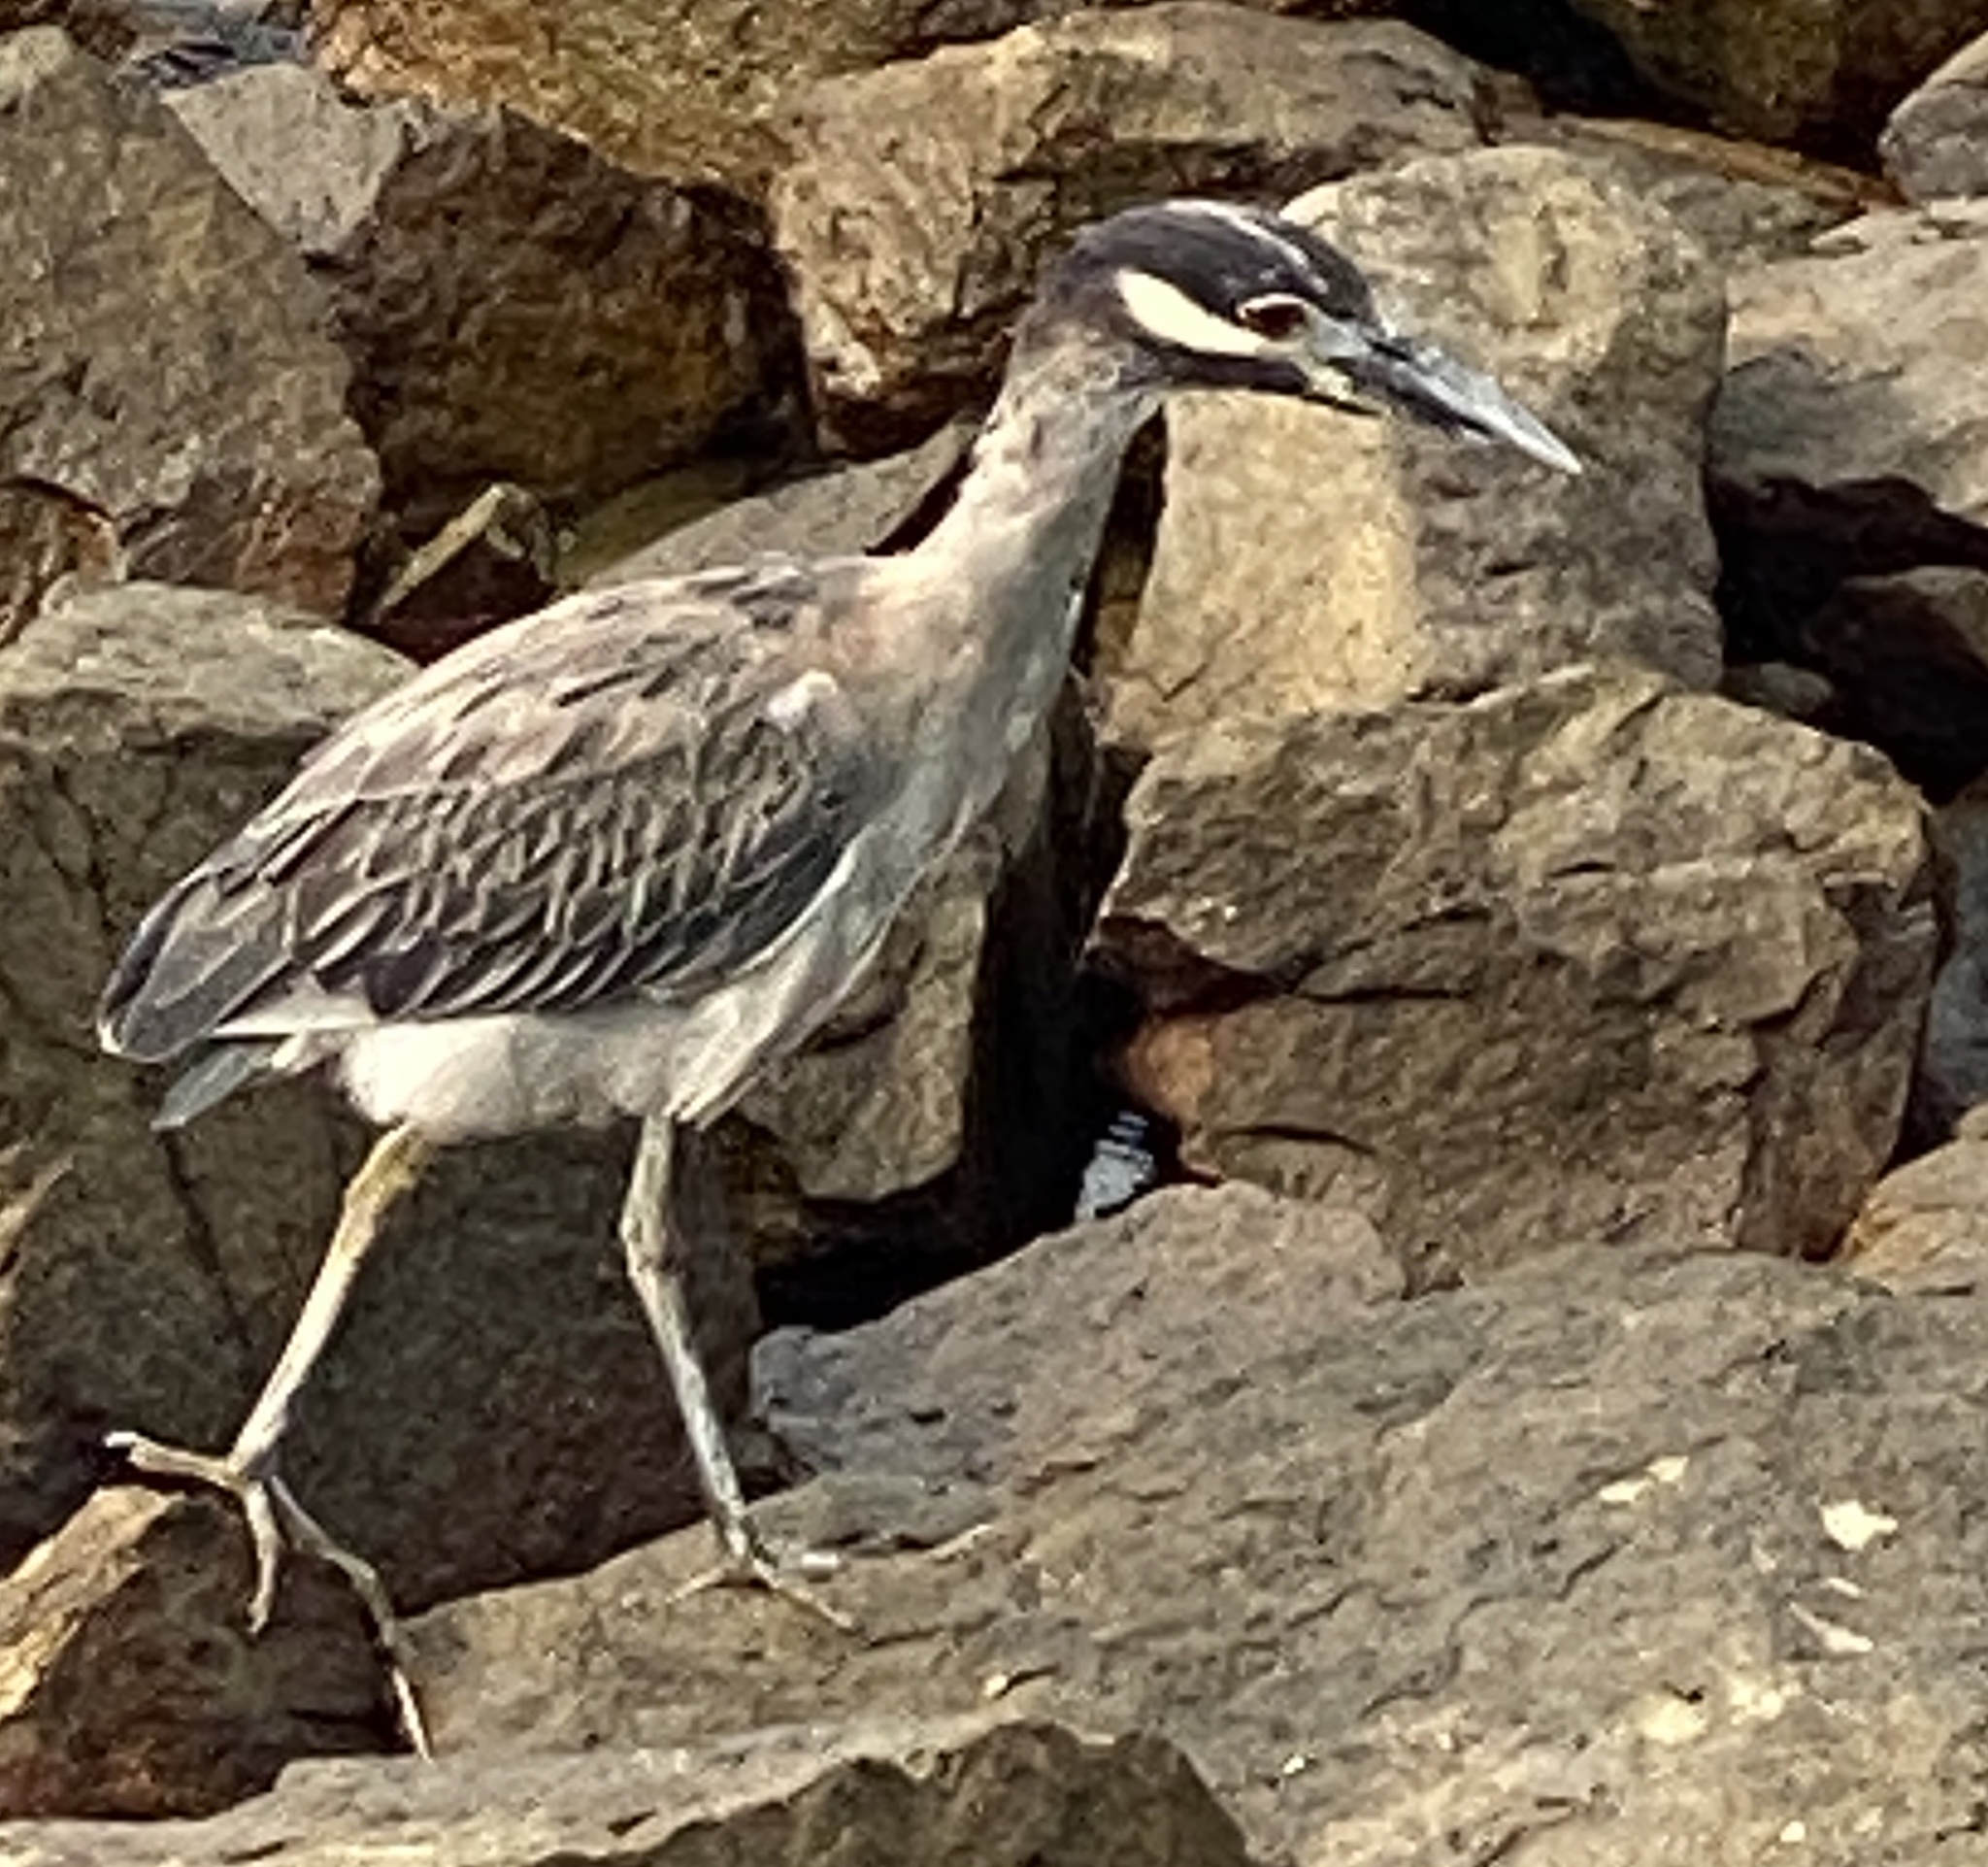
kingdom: Animalia
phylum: Chordata
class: Aves
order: Pelecaniformes
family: Ardeidae
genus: Nyctanassa
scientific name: Nyctanassa violacea
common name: Yellow-crowned night heron
